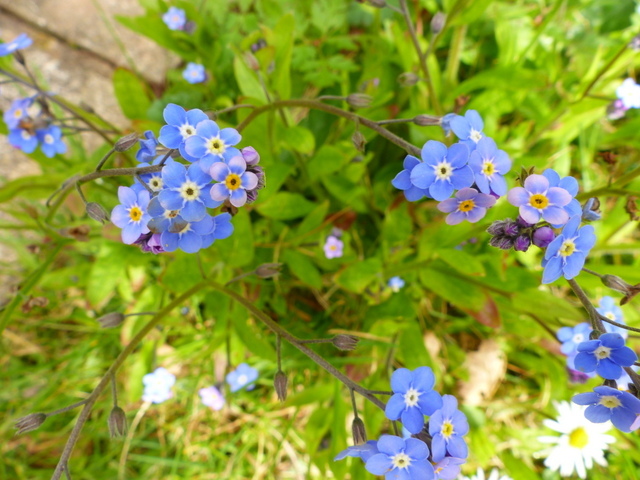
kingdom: Plantae
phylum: Tracheophyta
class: Magnoliopsida
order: Boraginales
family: Boraginaceae
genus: Myosotis
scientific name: Myosotis sylvatica
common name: Wood forget-me-not
